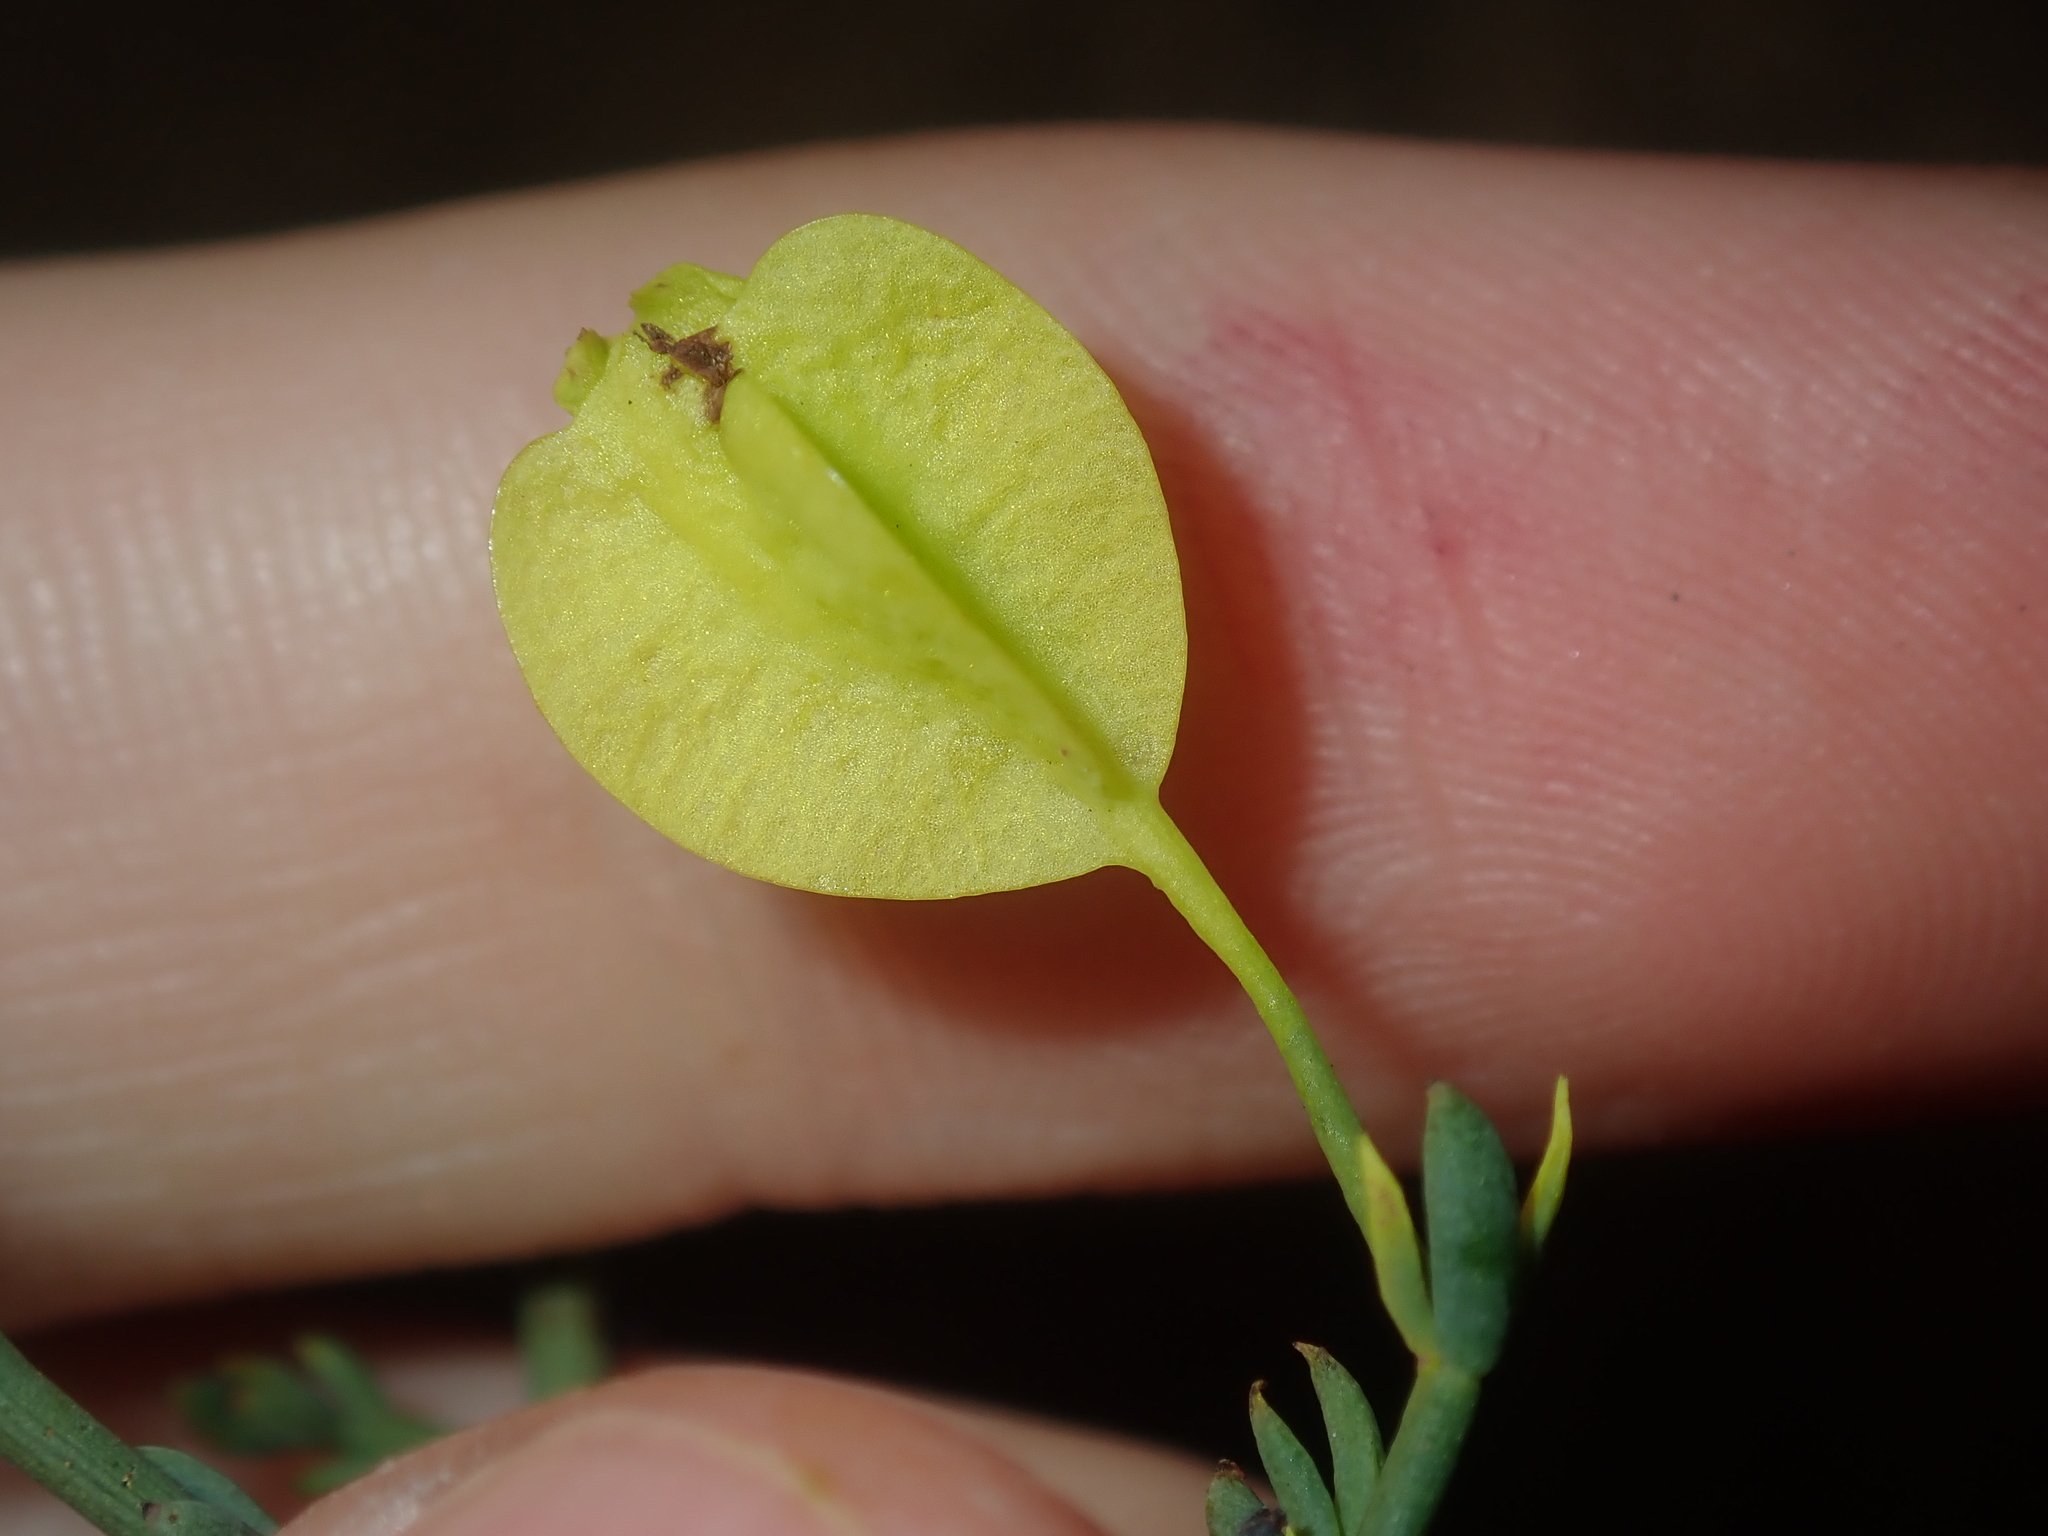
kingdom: Plantae
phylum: Tracheophyta
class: Magnoliopsida
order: Saxifragales
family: Haloragaceae
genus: Glischrocaryon
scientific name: Glischrocaryon angustifolium
